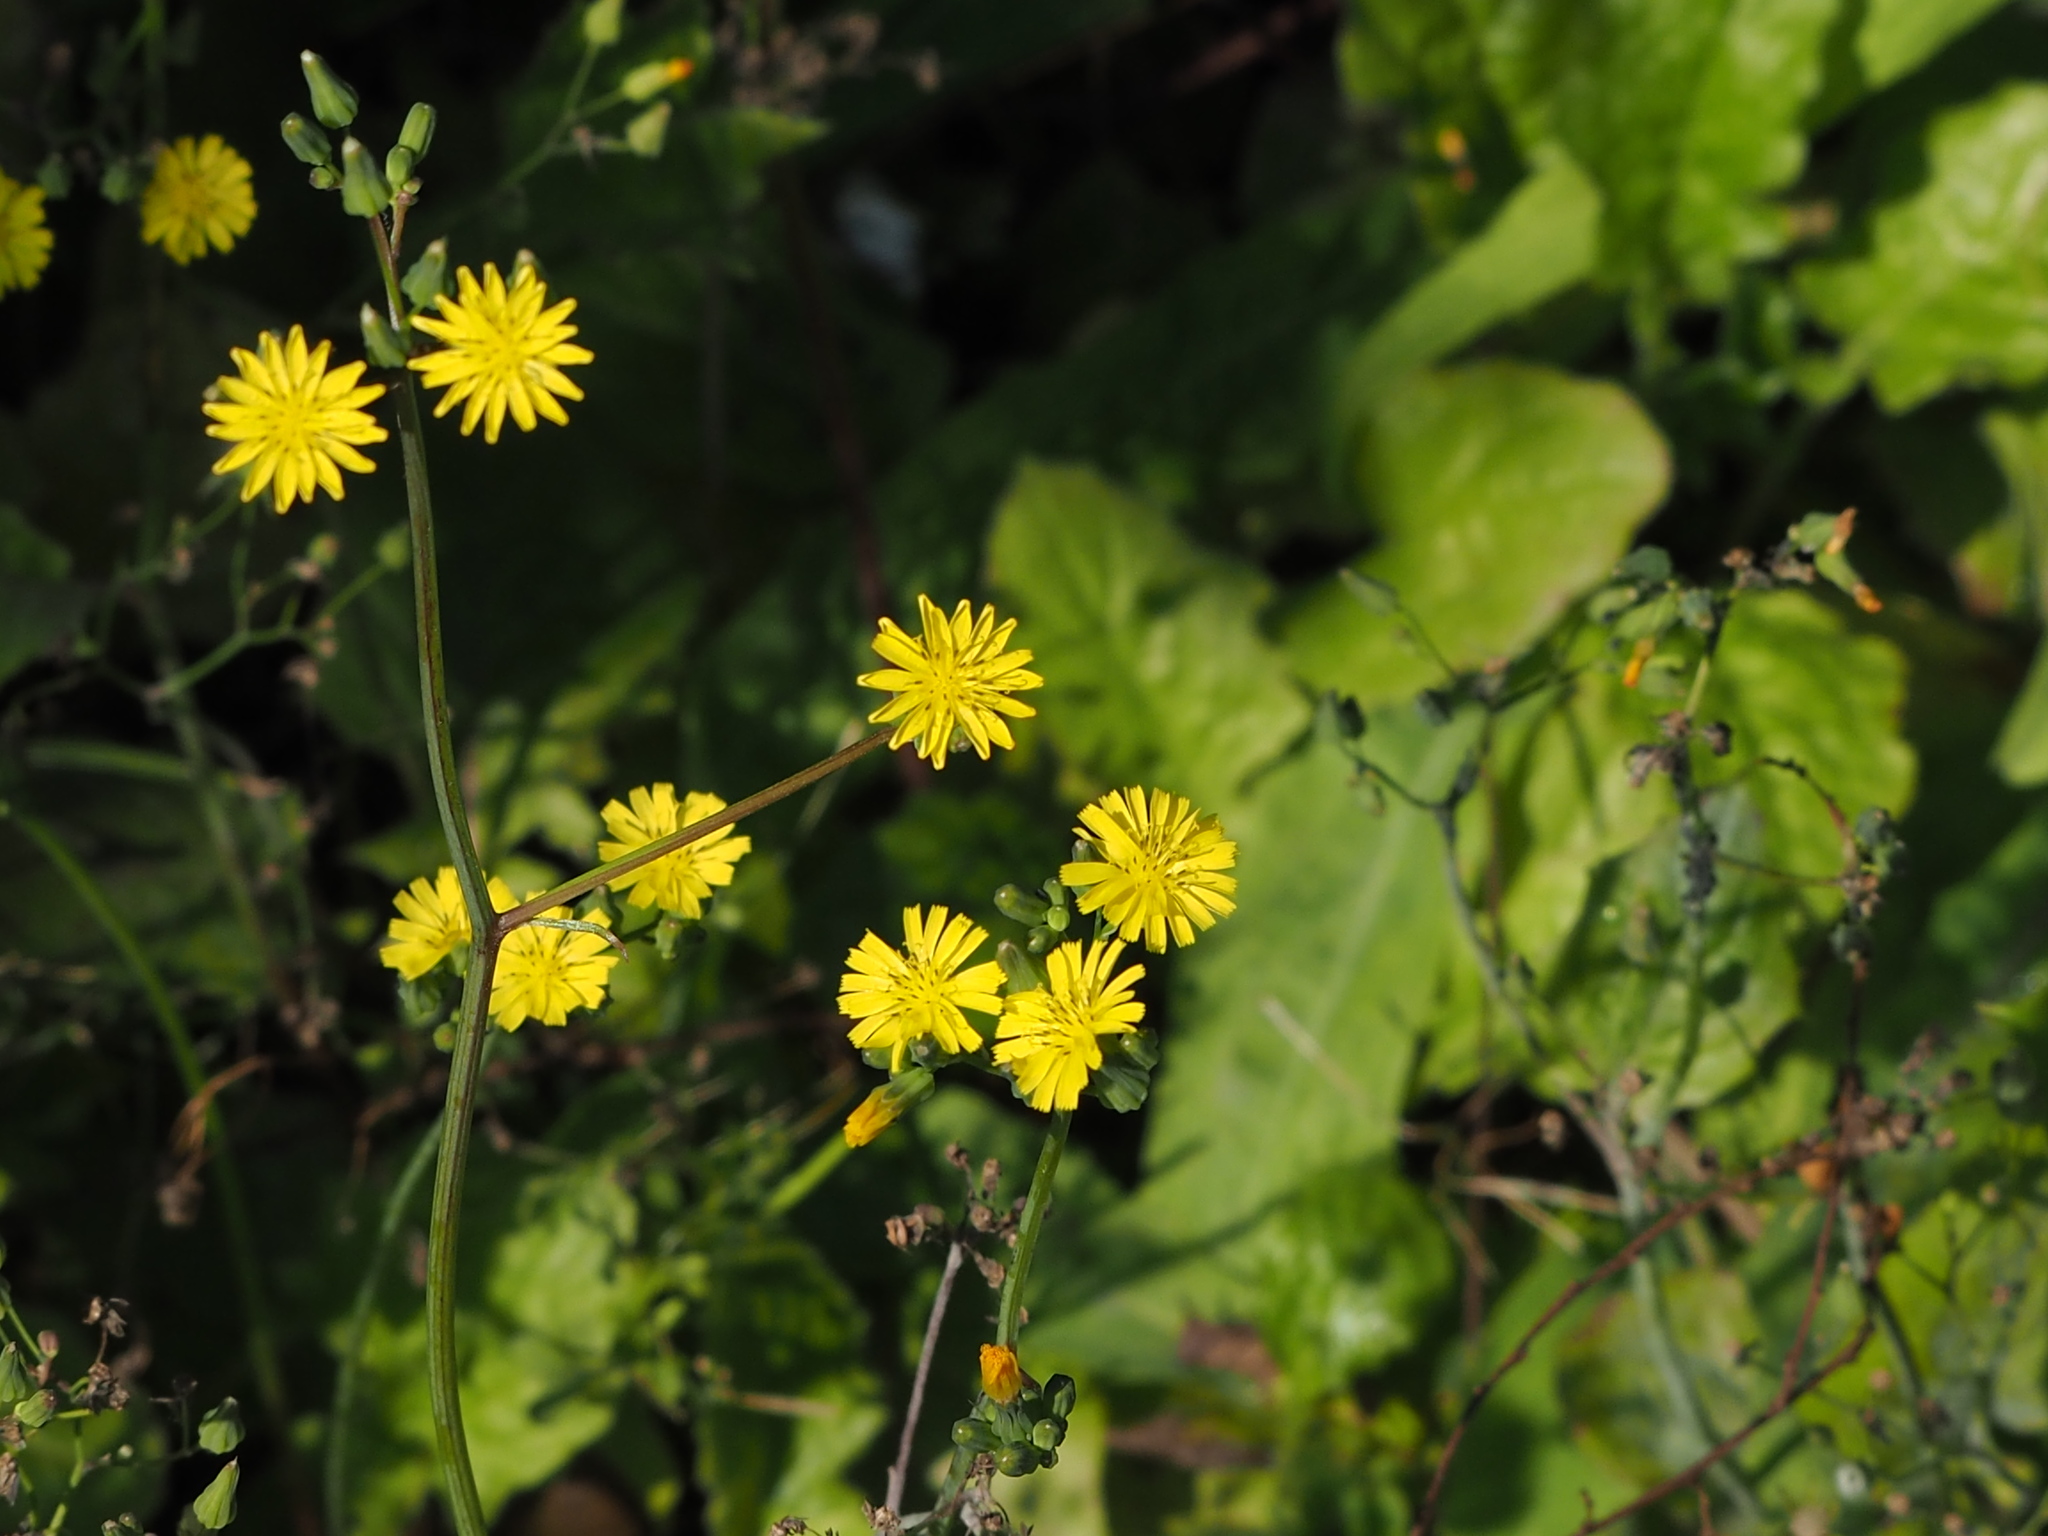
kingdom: Plantae
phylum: Tracheophyta
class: Magnoliopsida
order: Asterales
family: Asteraceae
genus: Youngia
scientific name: Youngia japonica
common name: Oriental false hawksbeard
